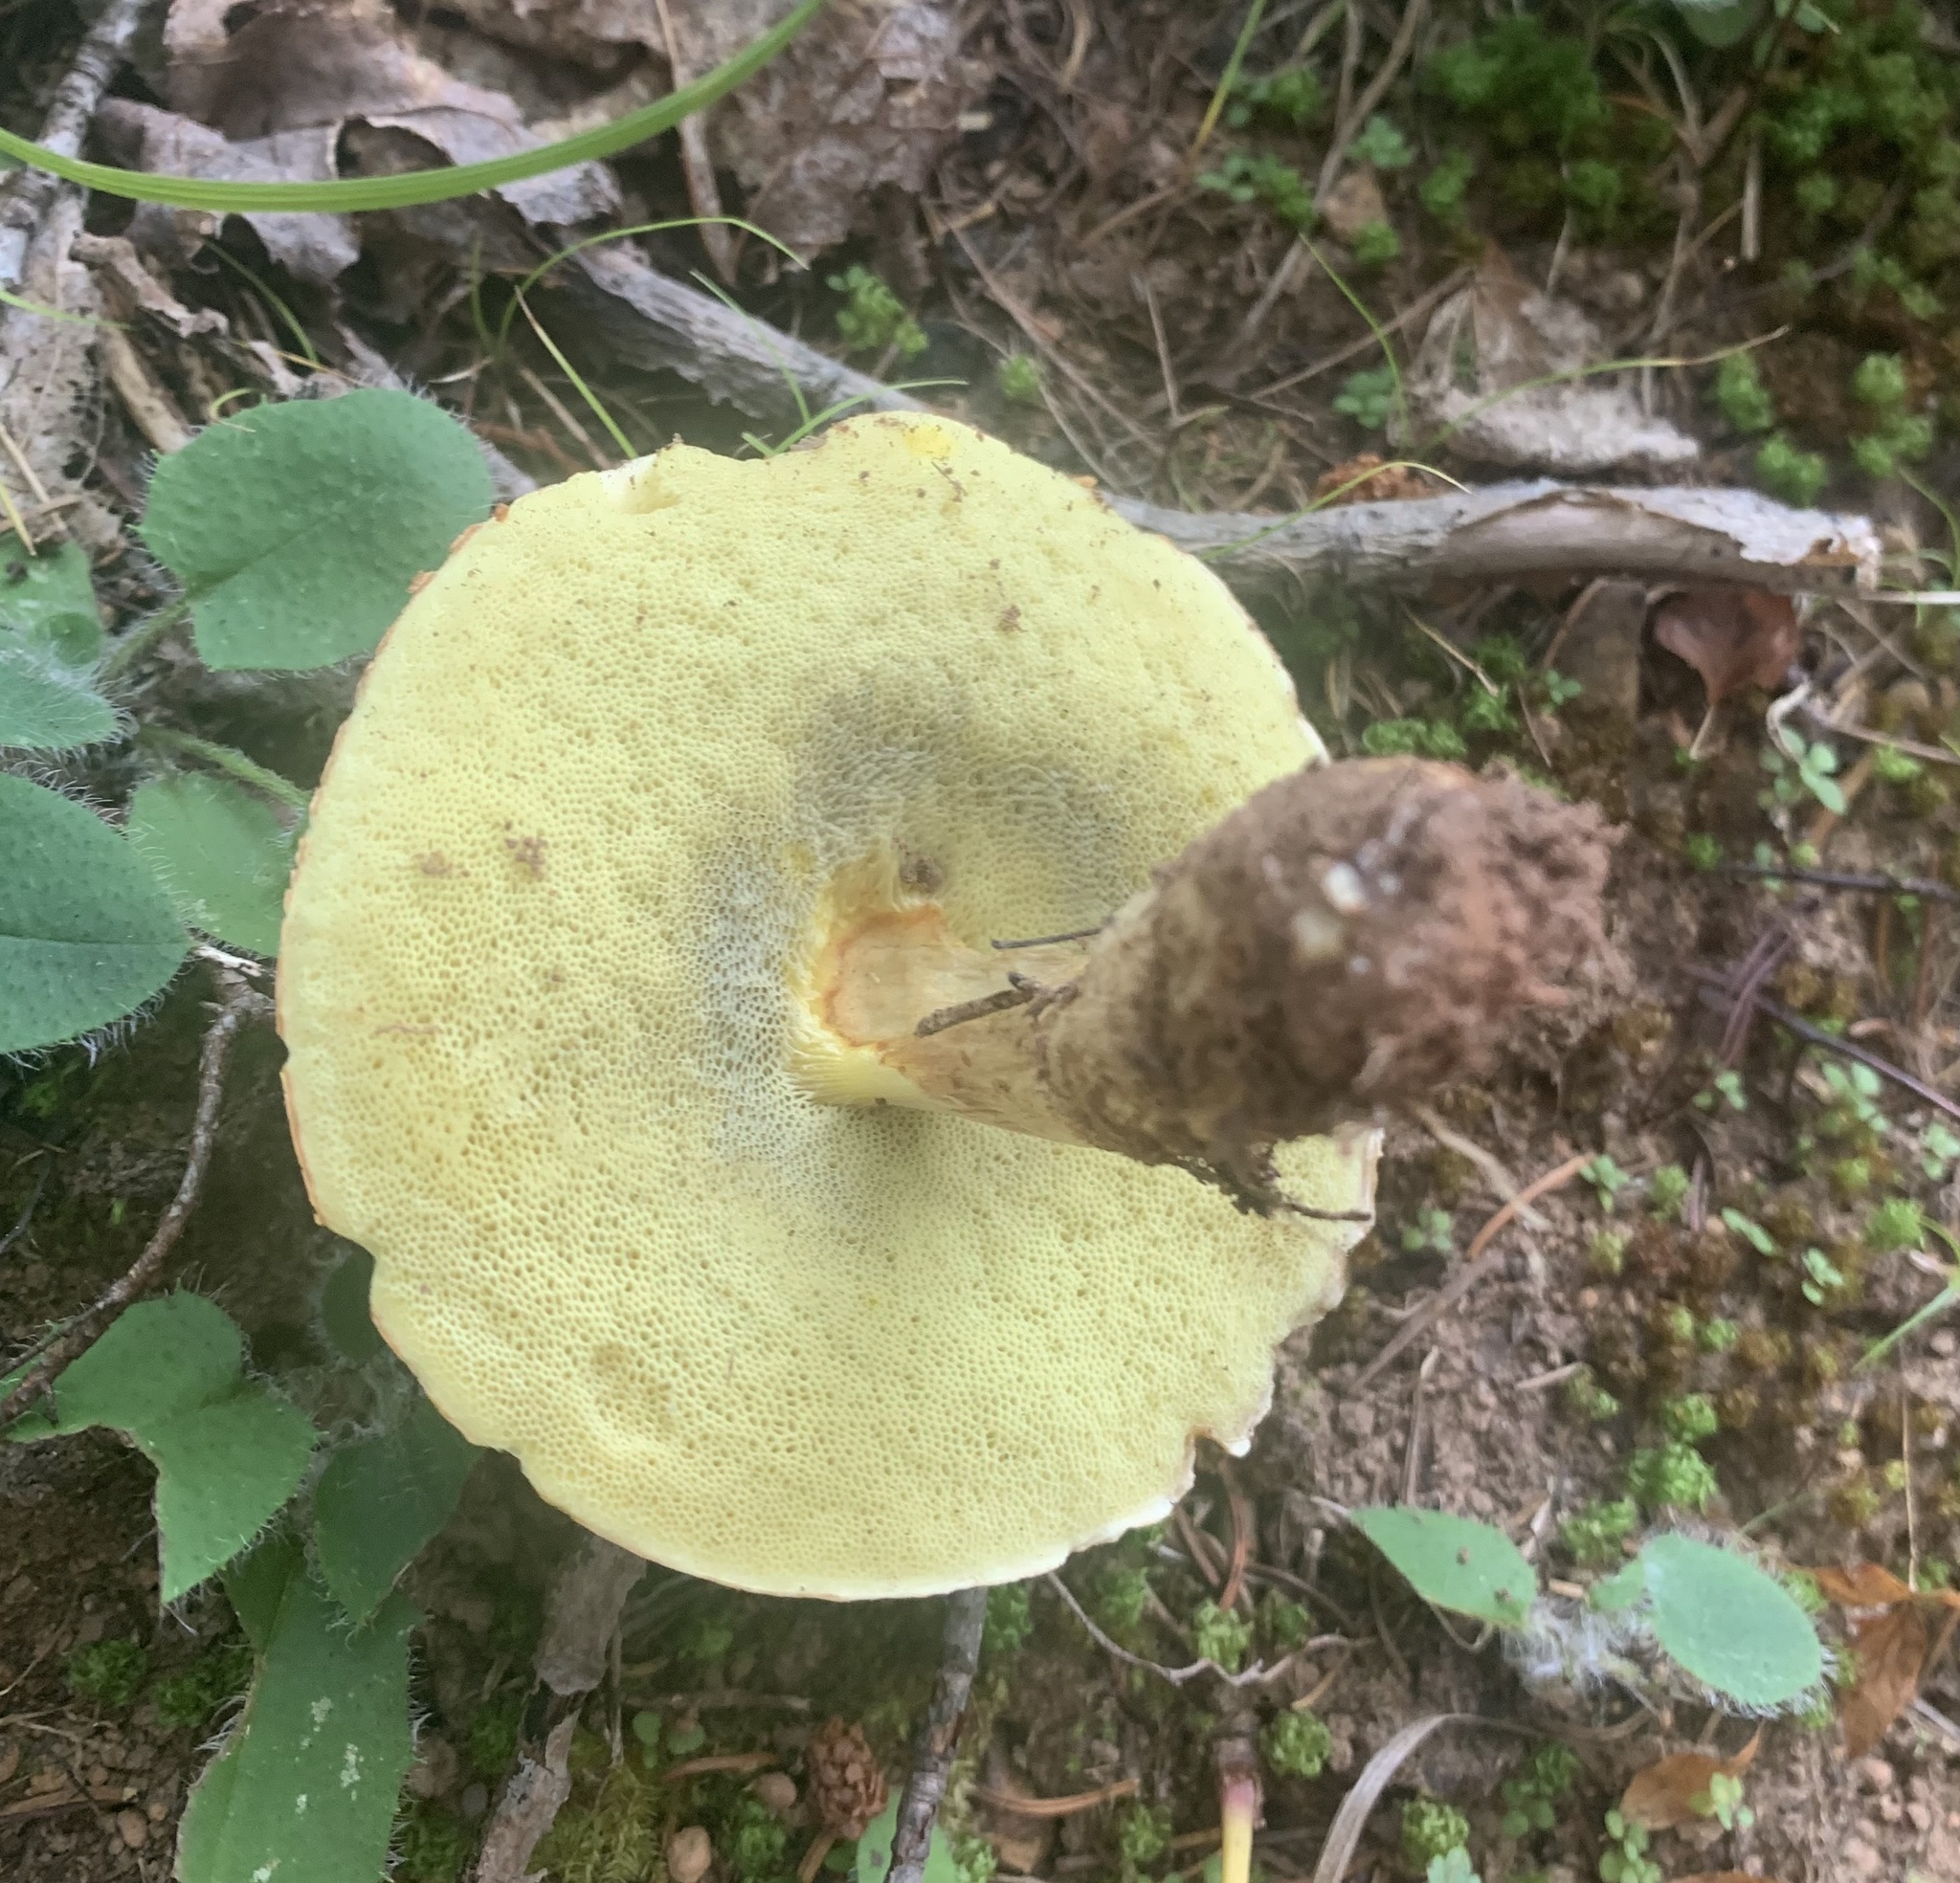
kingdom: Fungi
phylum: Basidiomycota
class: Agaricomycetes
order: Boletales
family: Boletaceae
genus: Hemileccinum
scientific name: Hemileccinum subglabripes
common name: Smoothish-stemmed bolete
